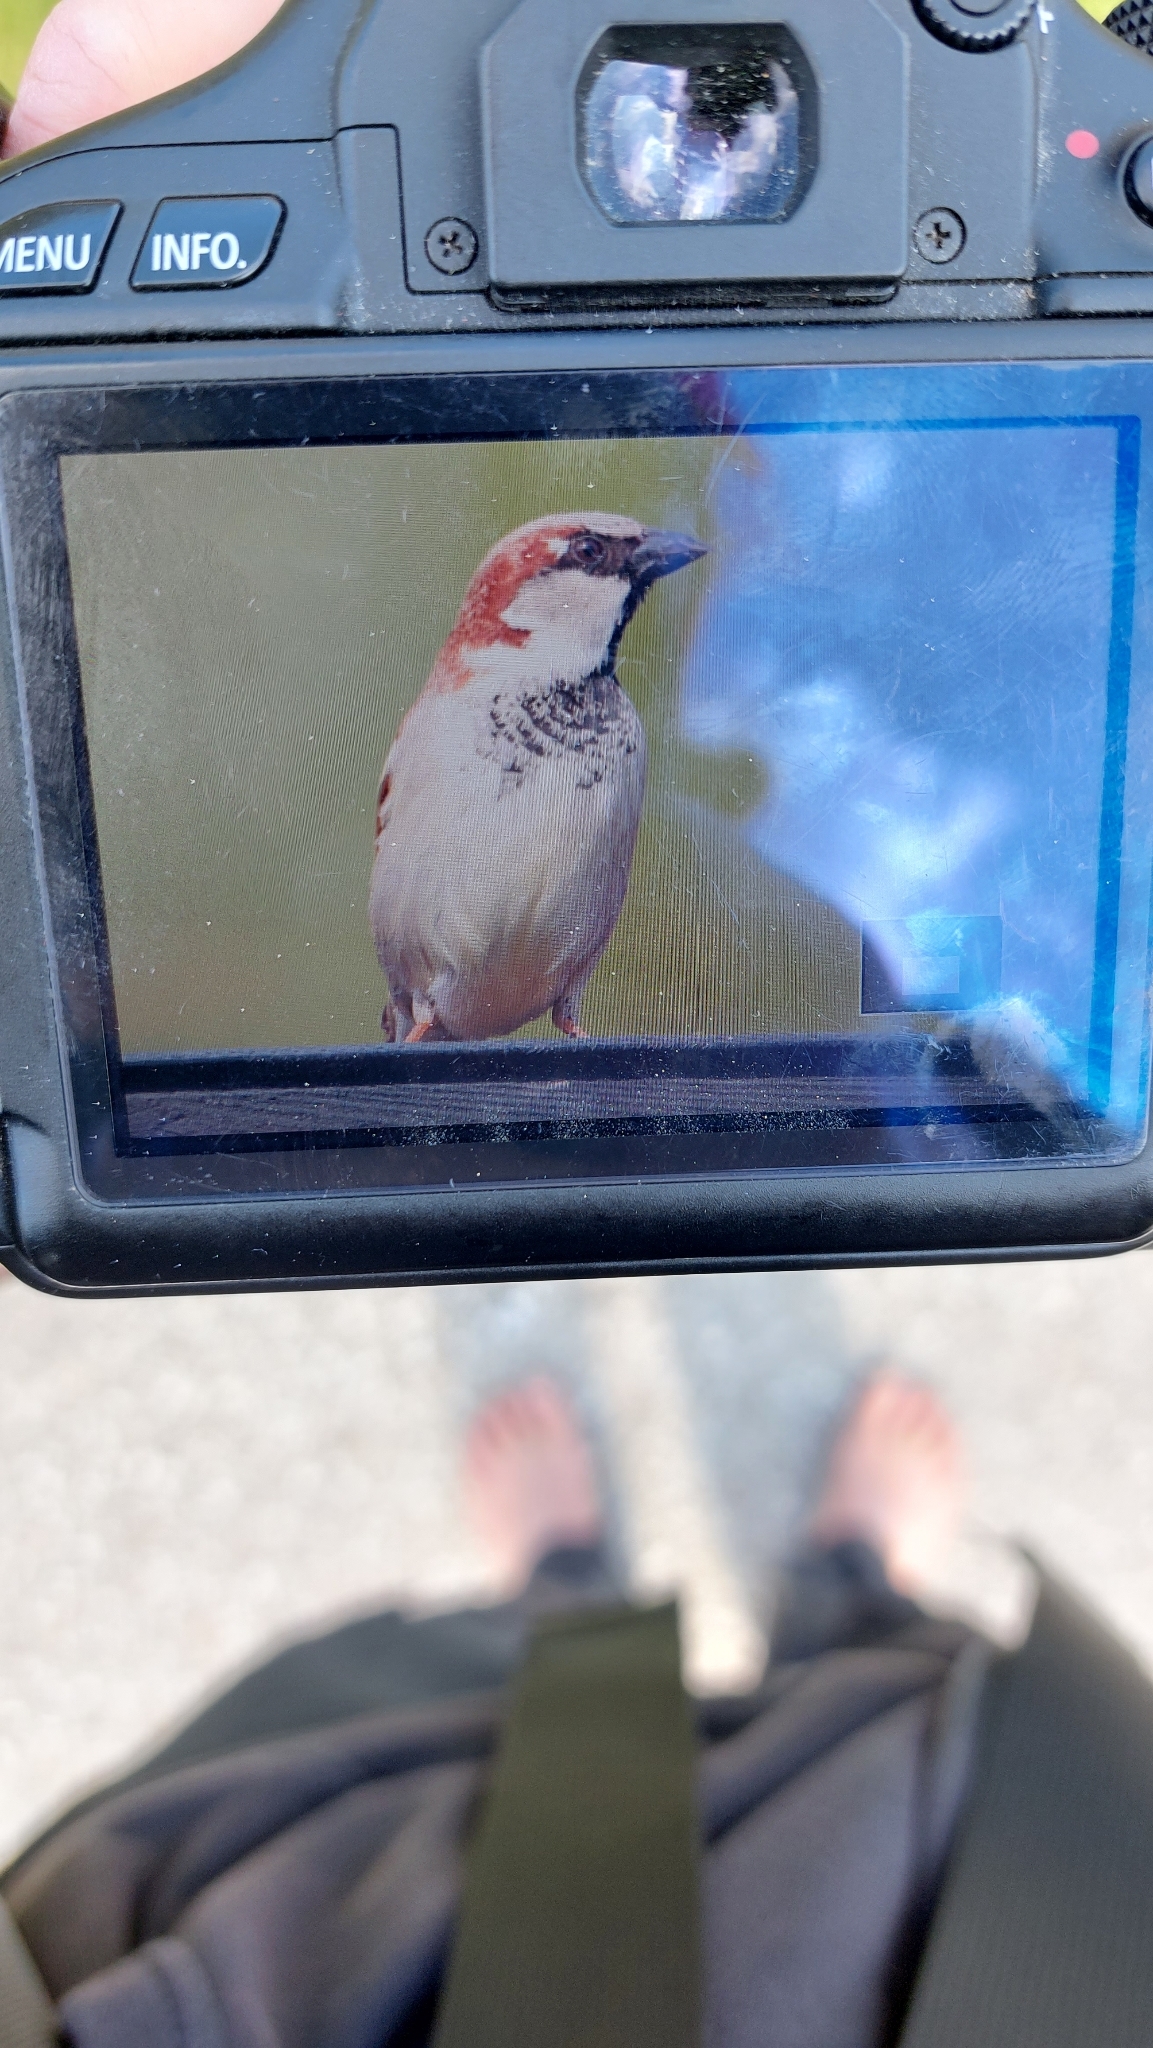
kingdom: Animalia
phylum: Chordata
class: Aves
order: Passeriformes
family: Passeridae
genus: Passer
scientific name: Passer domesticus
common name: House sparrow
